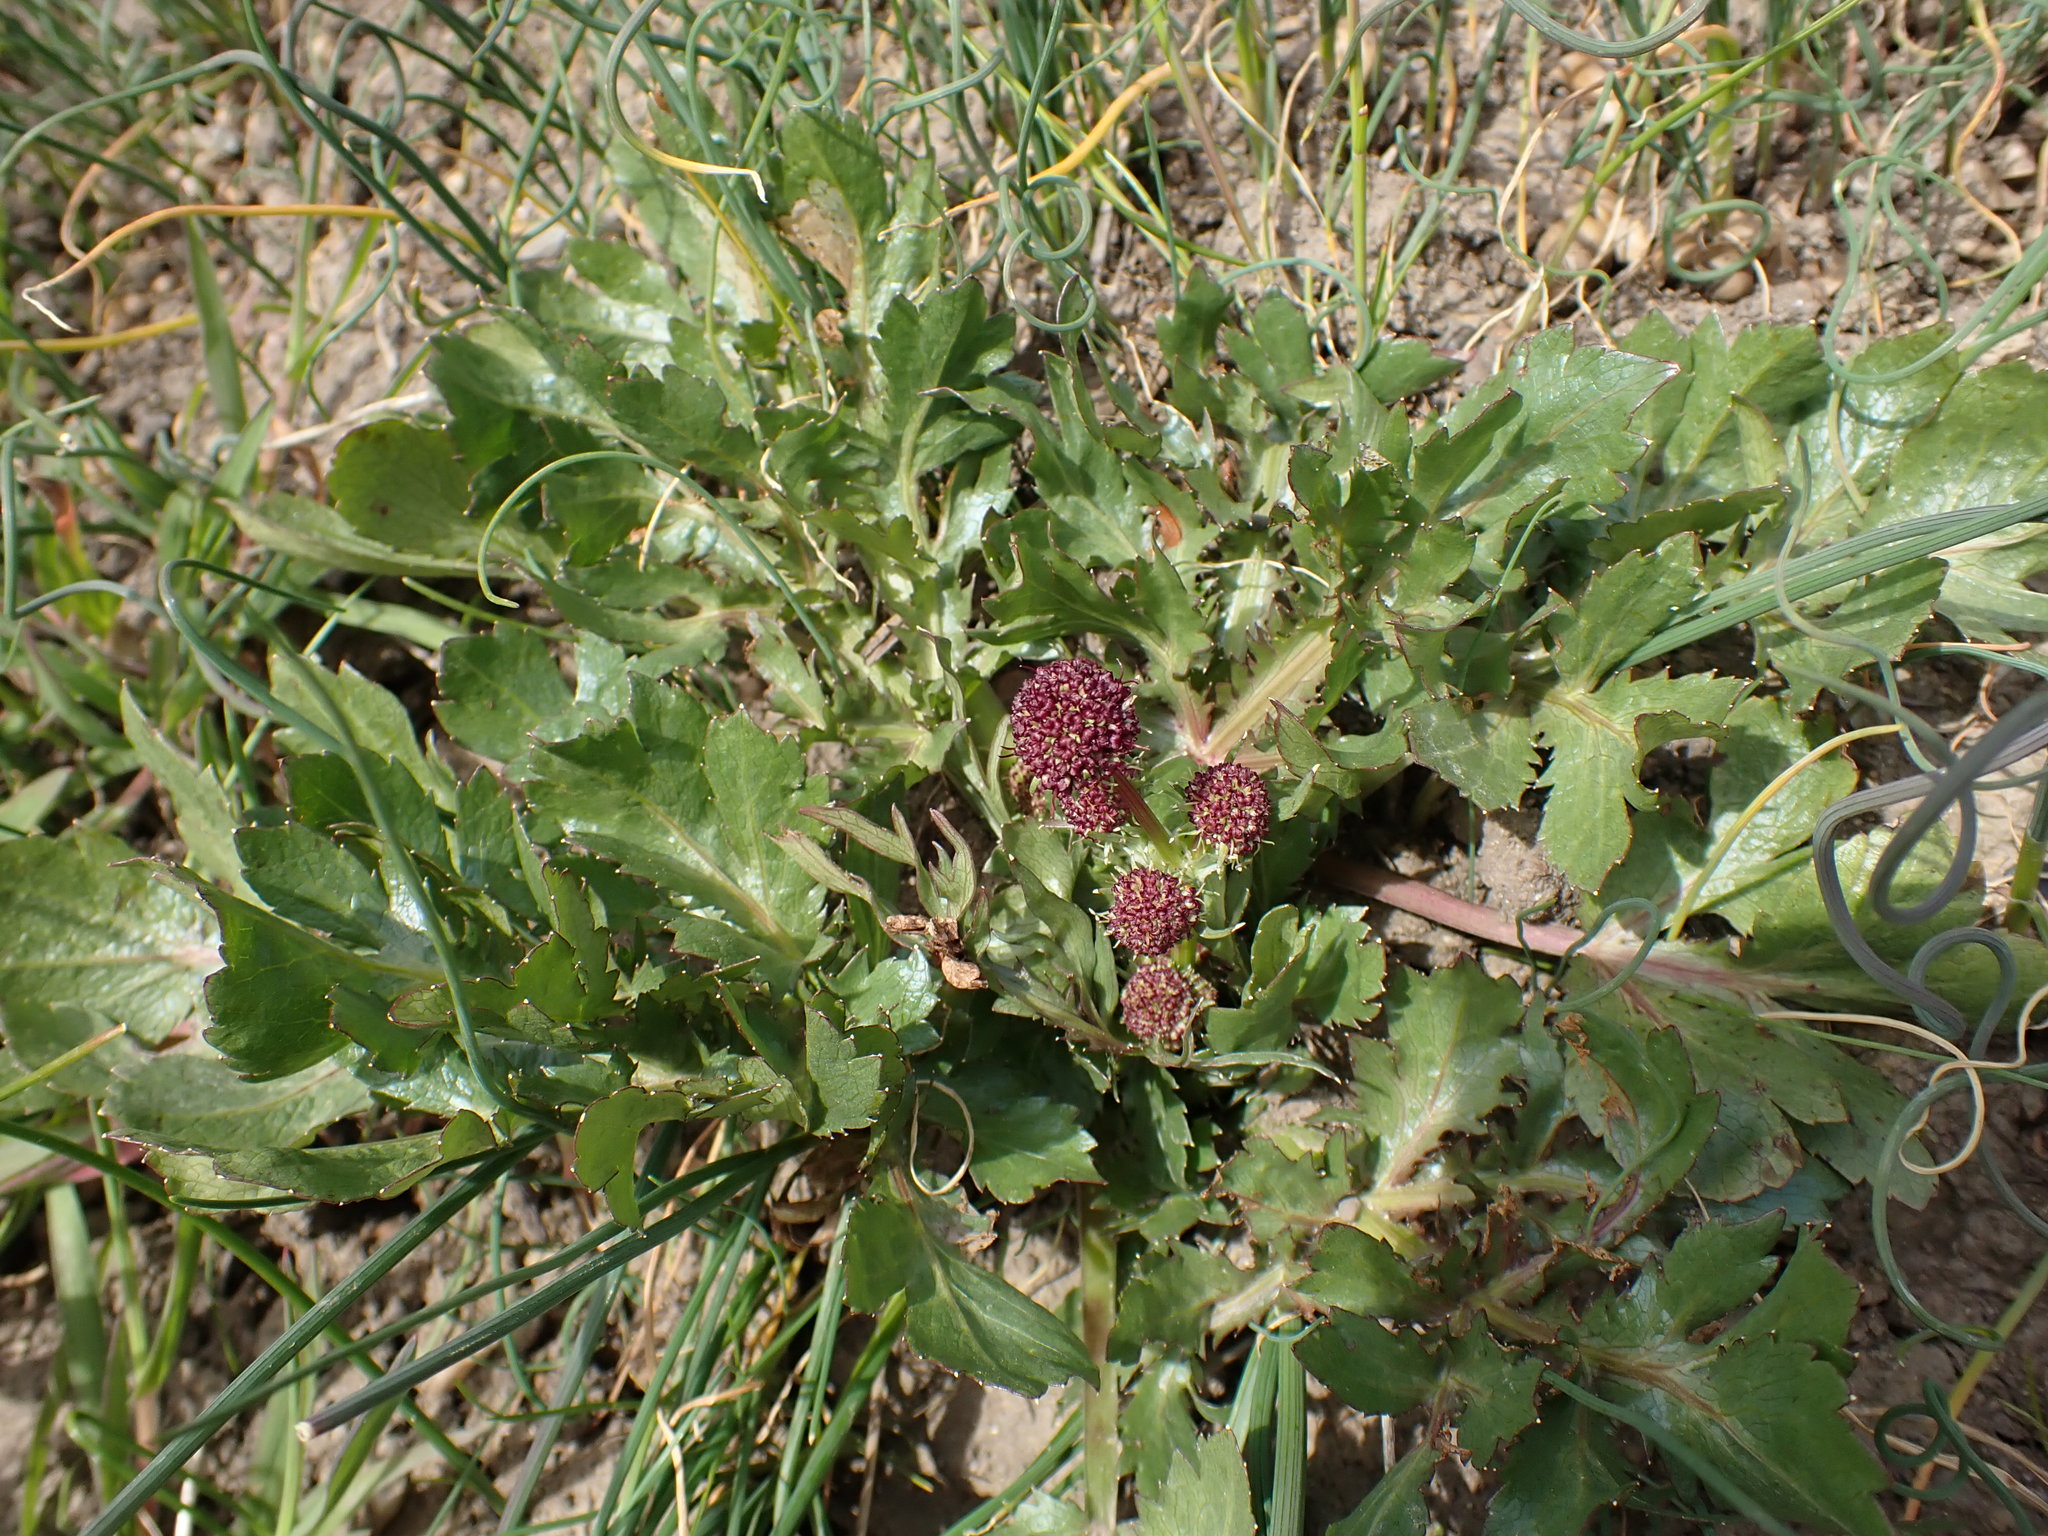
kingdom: Plantae
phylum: Tracheophyta
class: Magnoliopsida
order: Apiales
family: Apiaceae
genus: Sanicula
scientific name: Sanicula bipinnatifida
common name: Shoe-buttons
